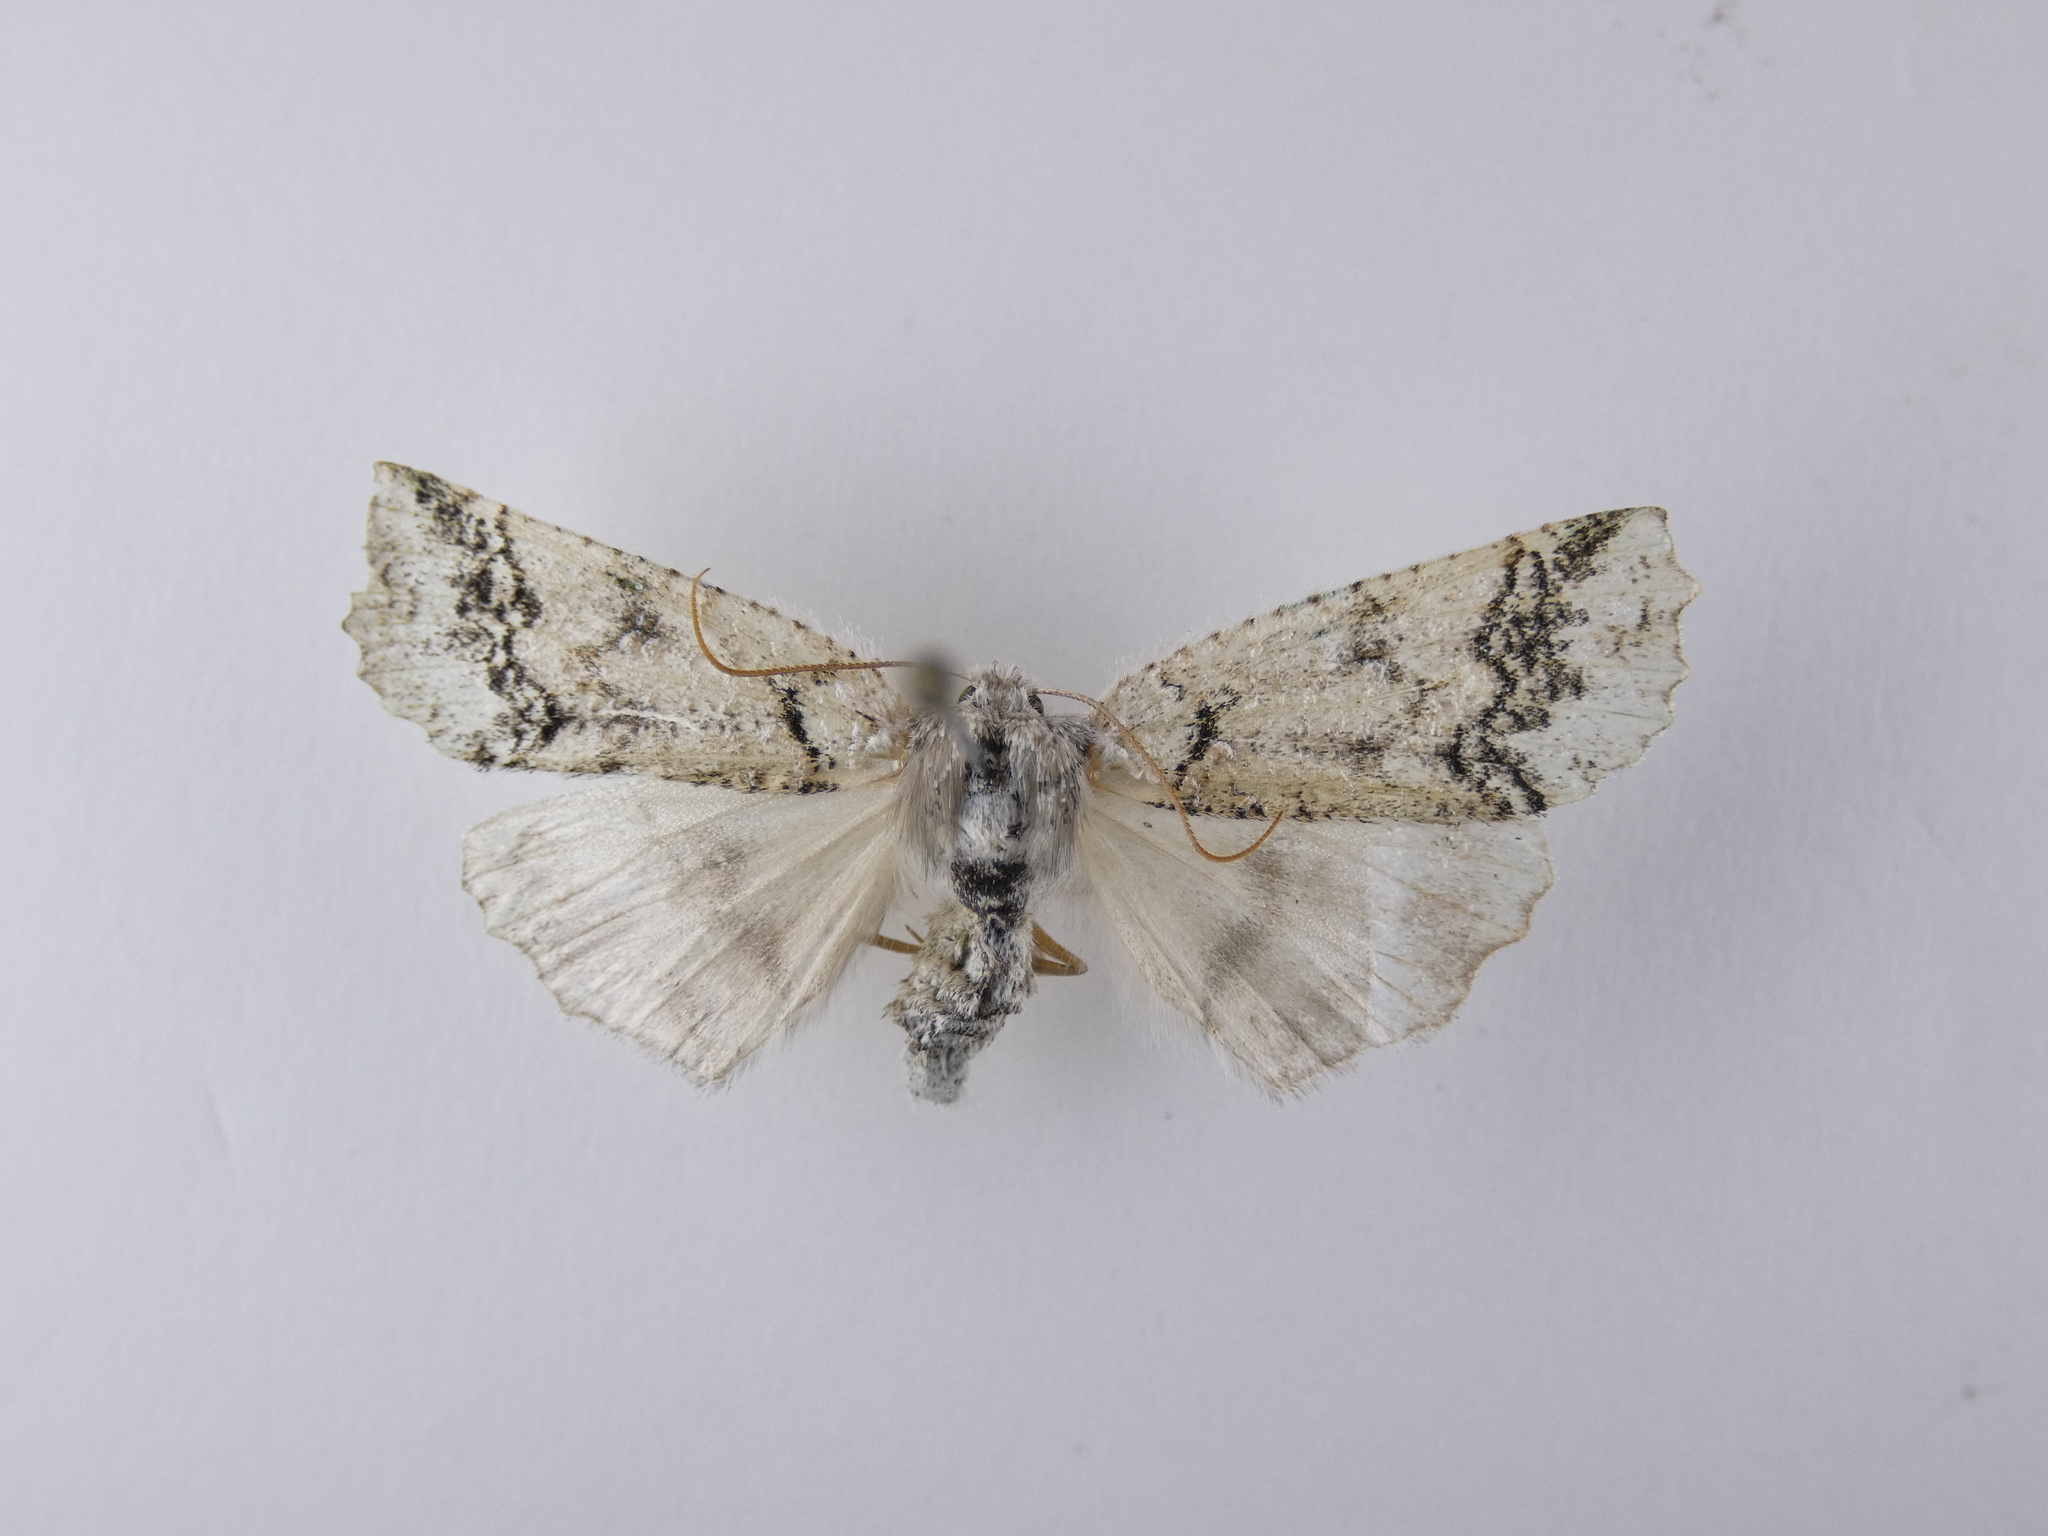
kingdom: Animalia
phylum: Arthropoda
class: Insecta
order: Lepidoptera
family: Geometridae
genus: Declana
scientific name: Declana floccosa
